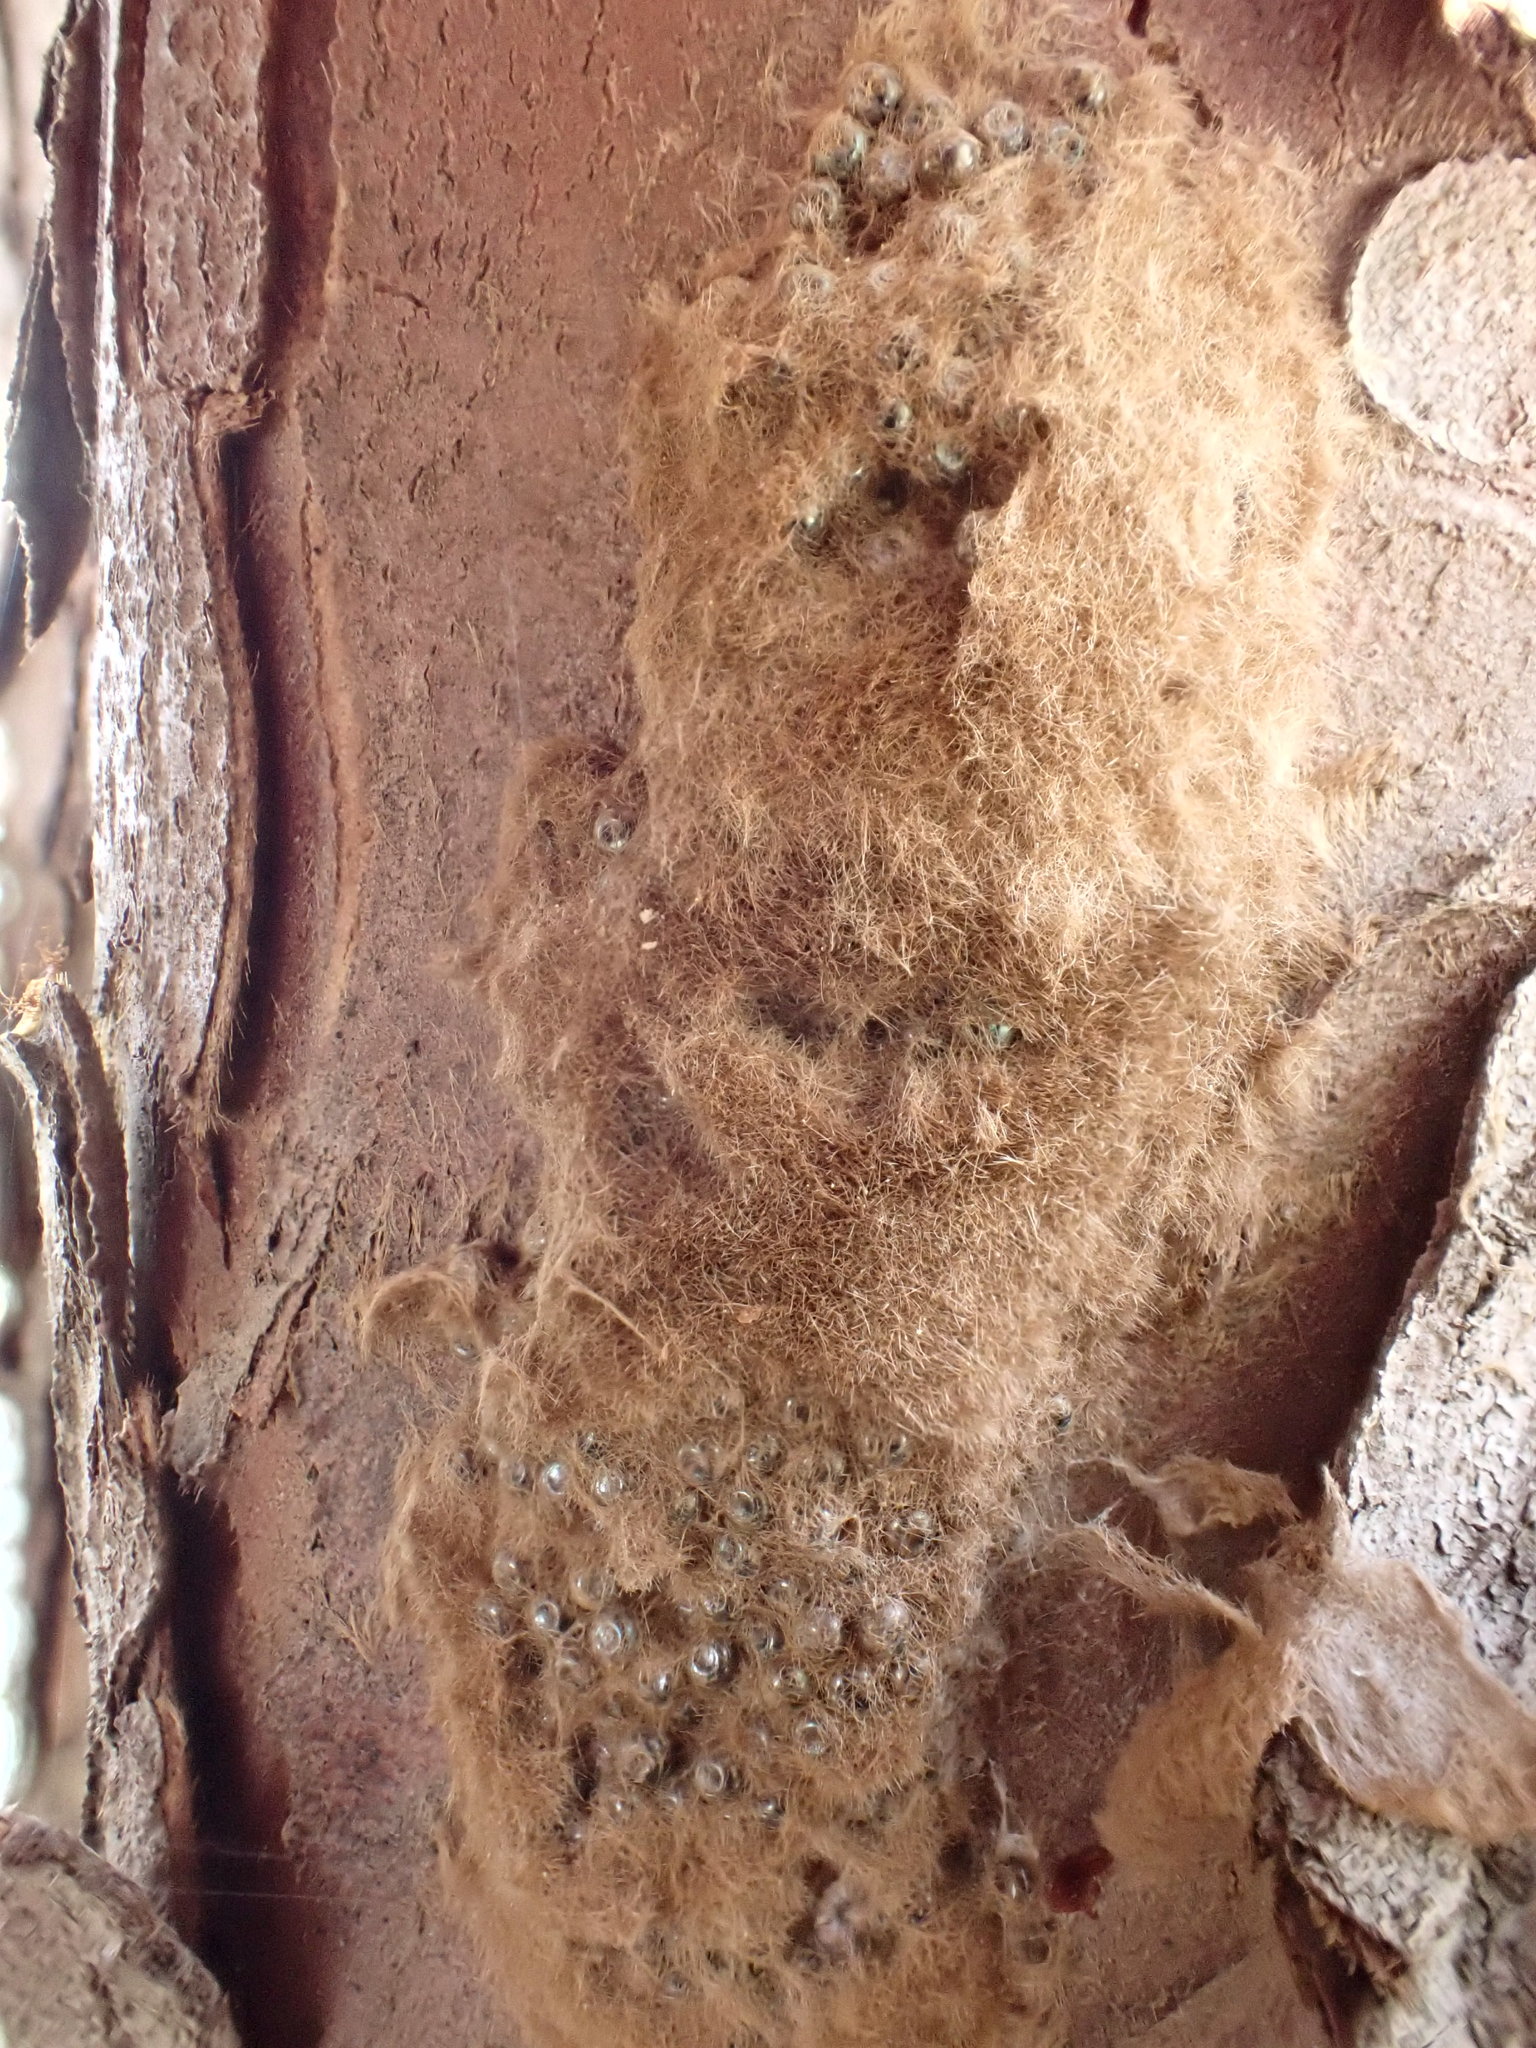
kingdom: Animalia
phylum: Arthropoda
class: Insecta
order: Lepidoptera
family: Erebidae
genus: Lymantria
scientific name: Lymantria dispar
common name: Gypsy moth
